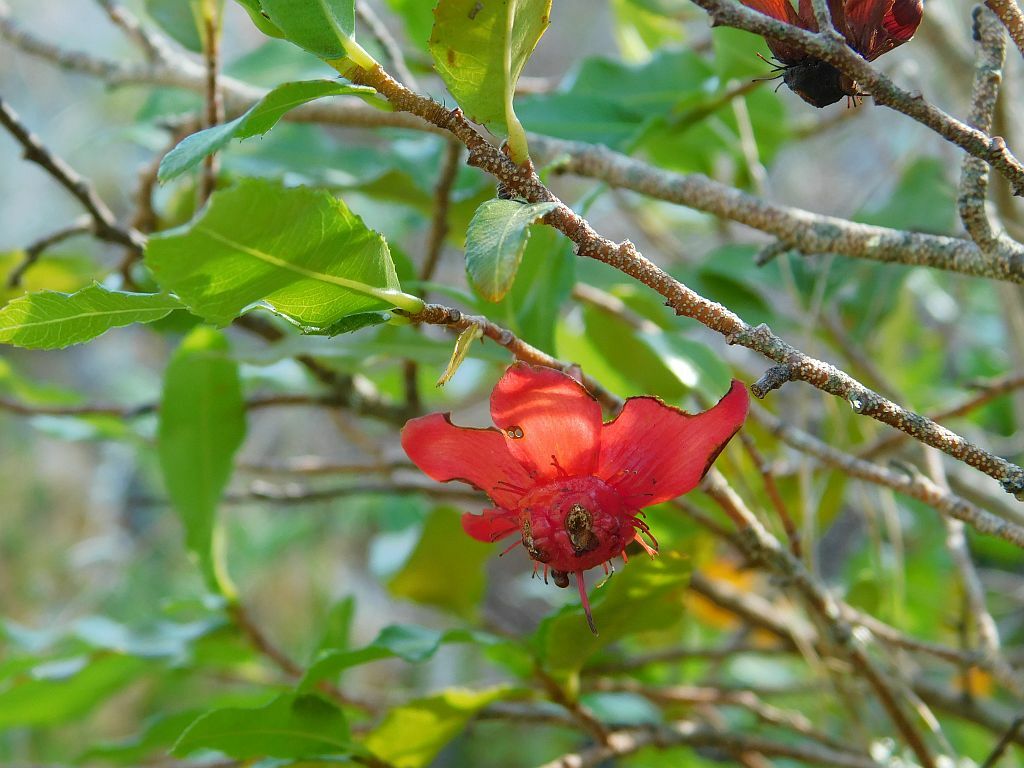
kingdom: Plantae
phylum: Tracheophyta
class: Magnoliopsida
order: Malpighiales
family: Ochnaceae
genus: Ochna
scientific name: Ochna serrulata
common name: Mickey mouse plant
